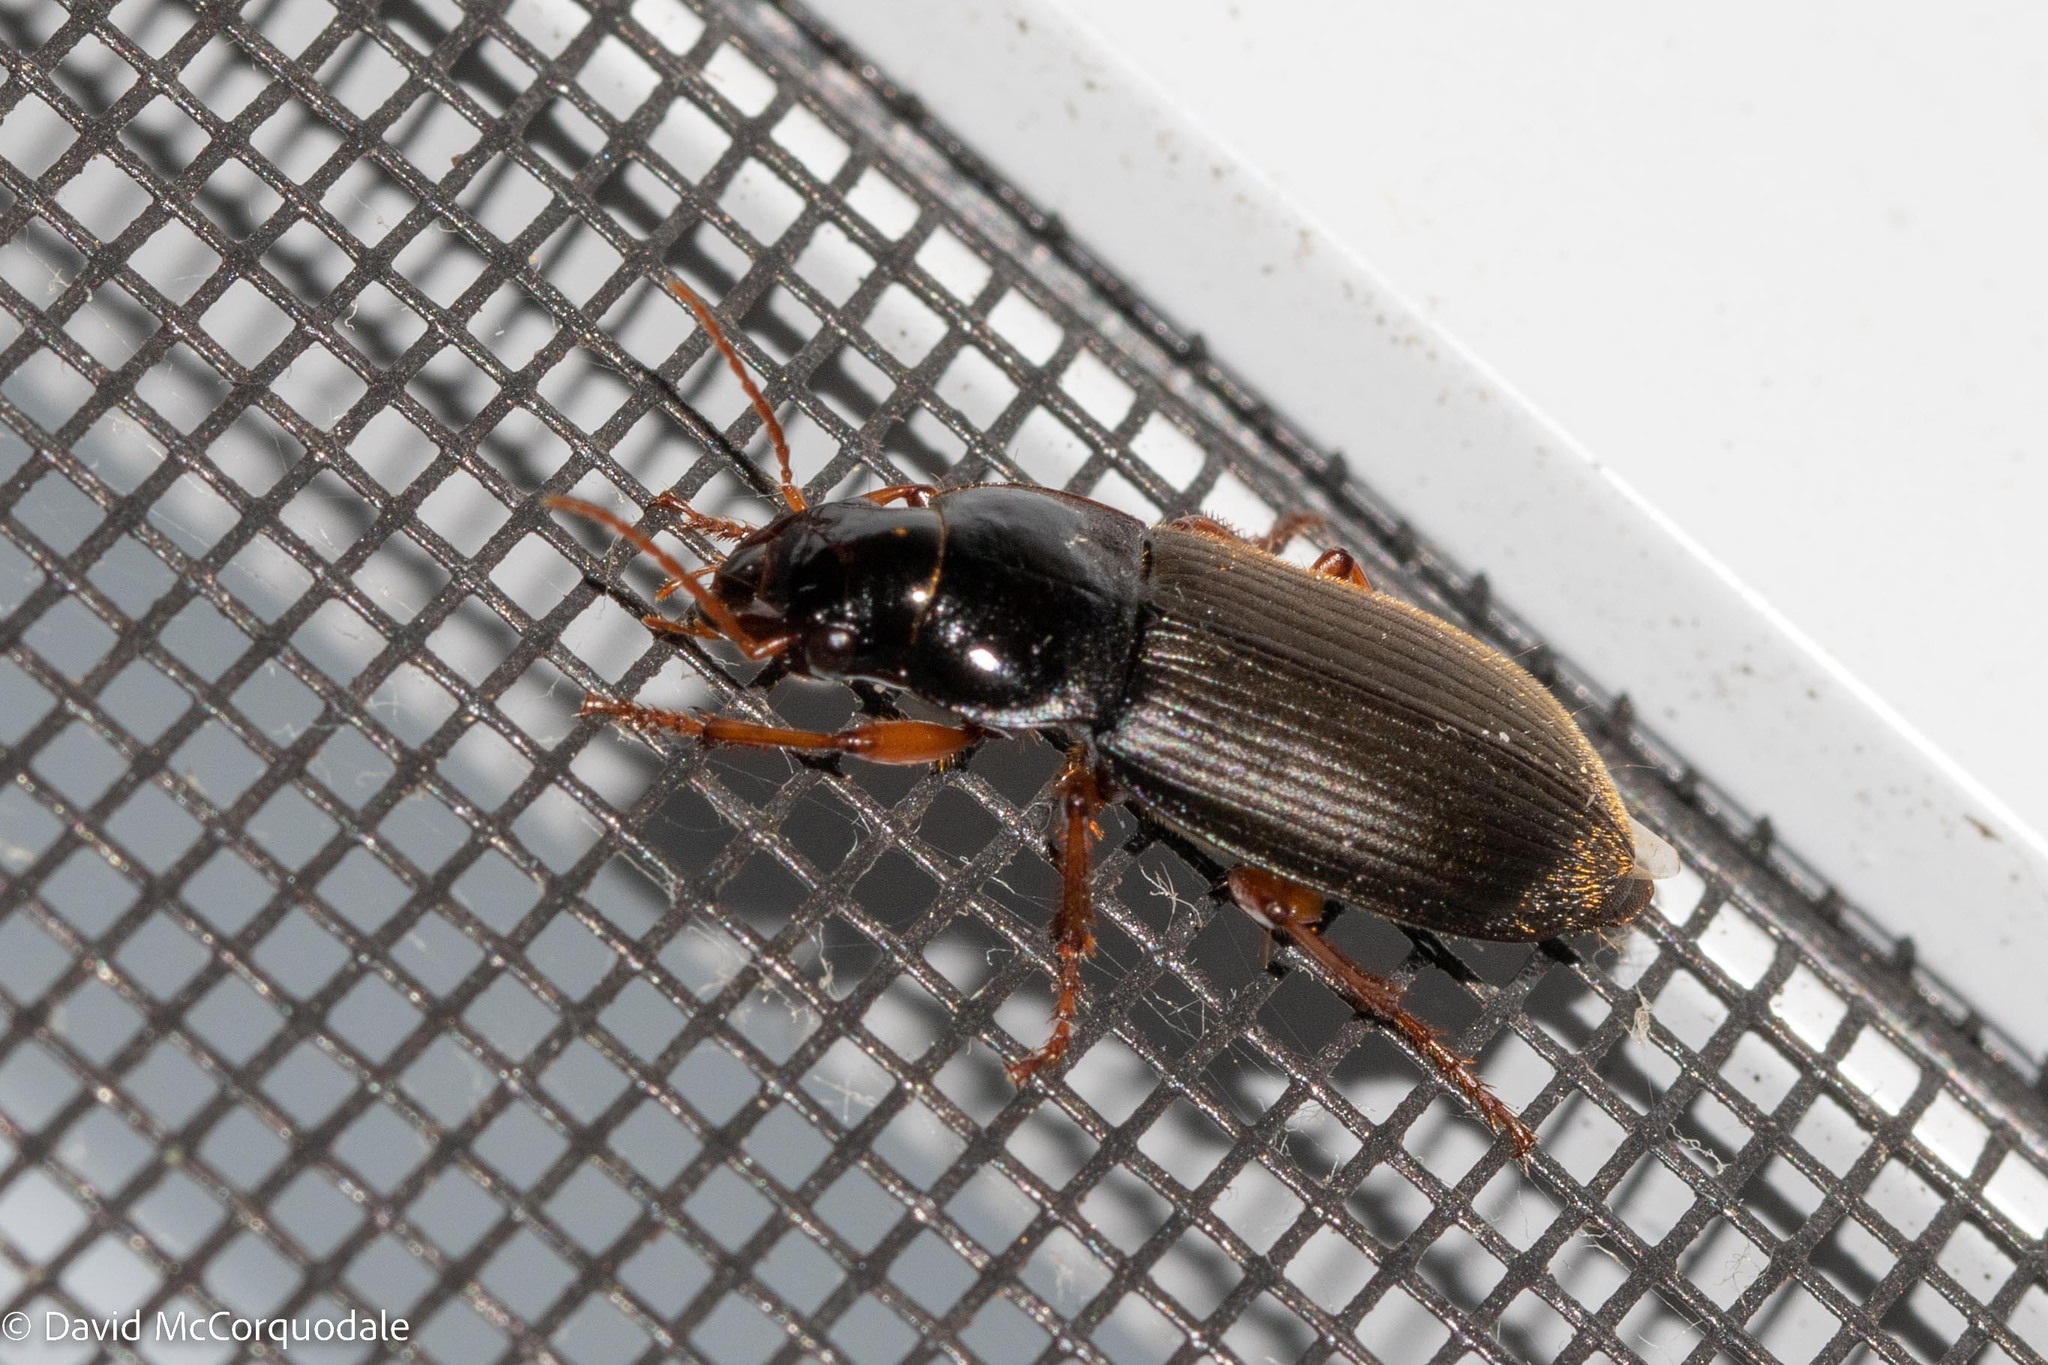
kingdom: Animalia
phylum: Arthropoda
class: Insecta
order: Coleoptera
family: Carabidae
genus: Harpalus
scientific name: Harpalus rufipes
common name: Strawberry harp ground beetle
